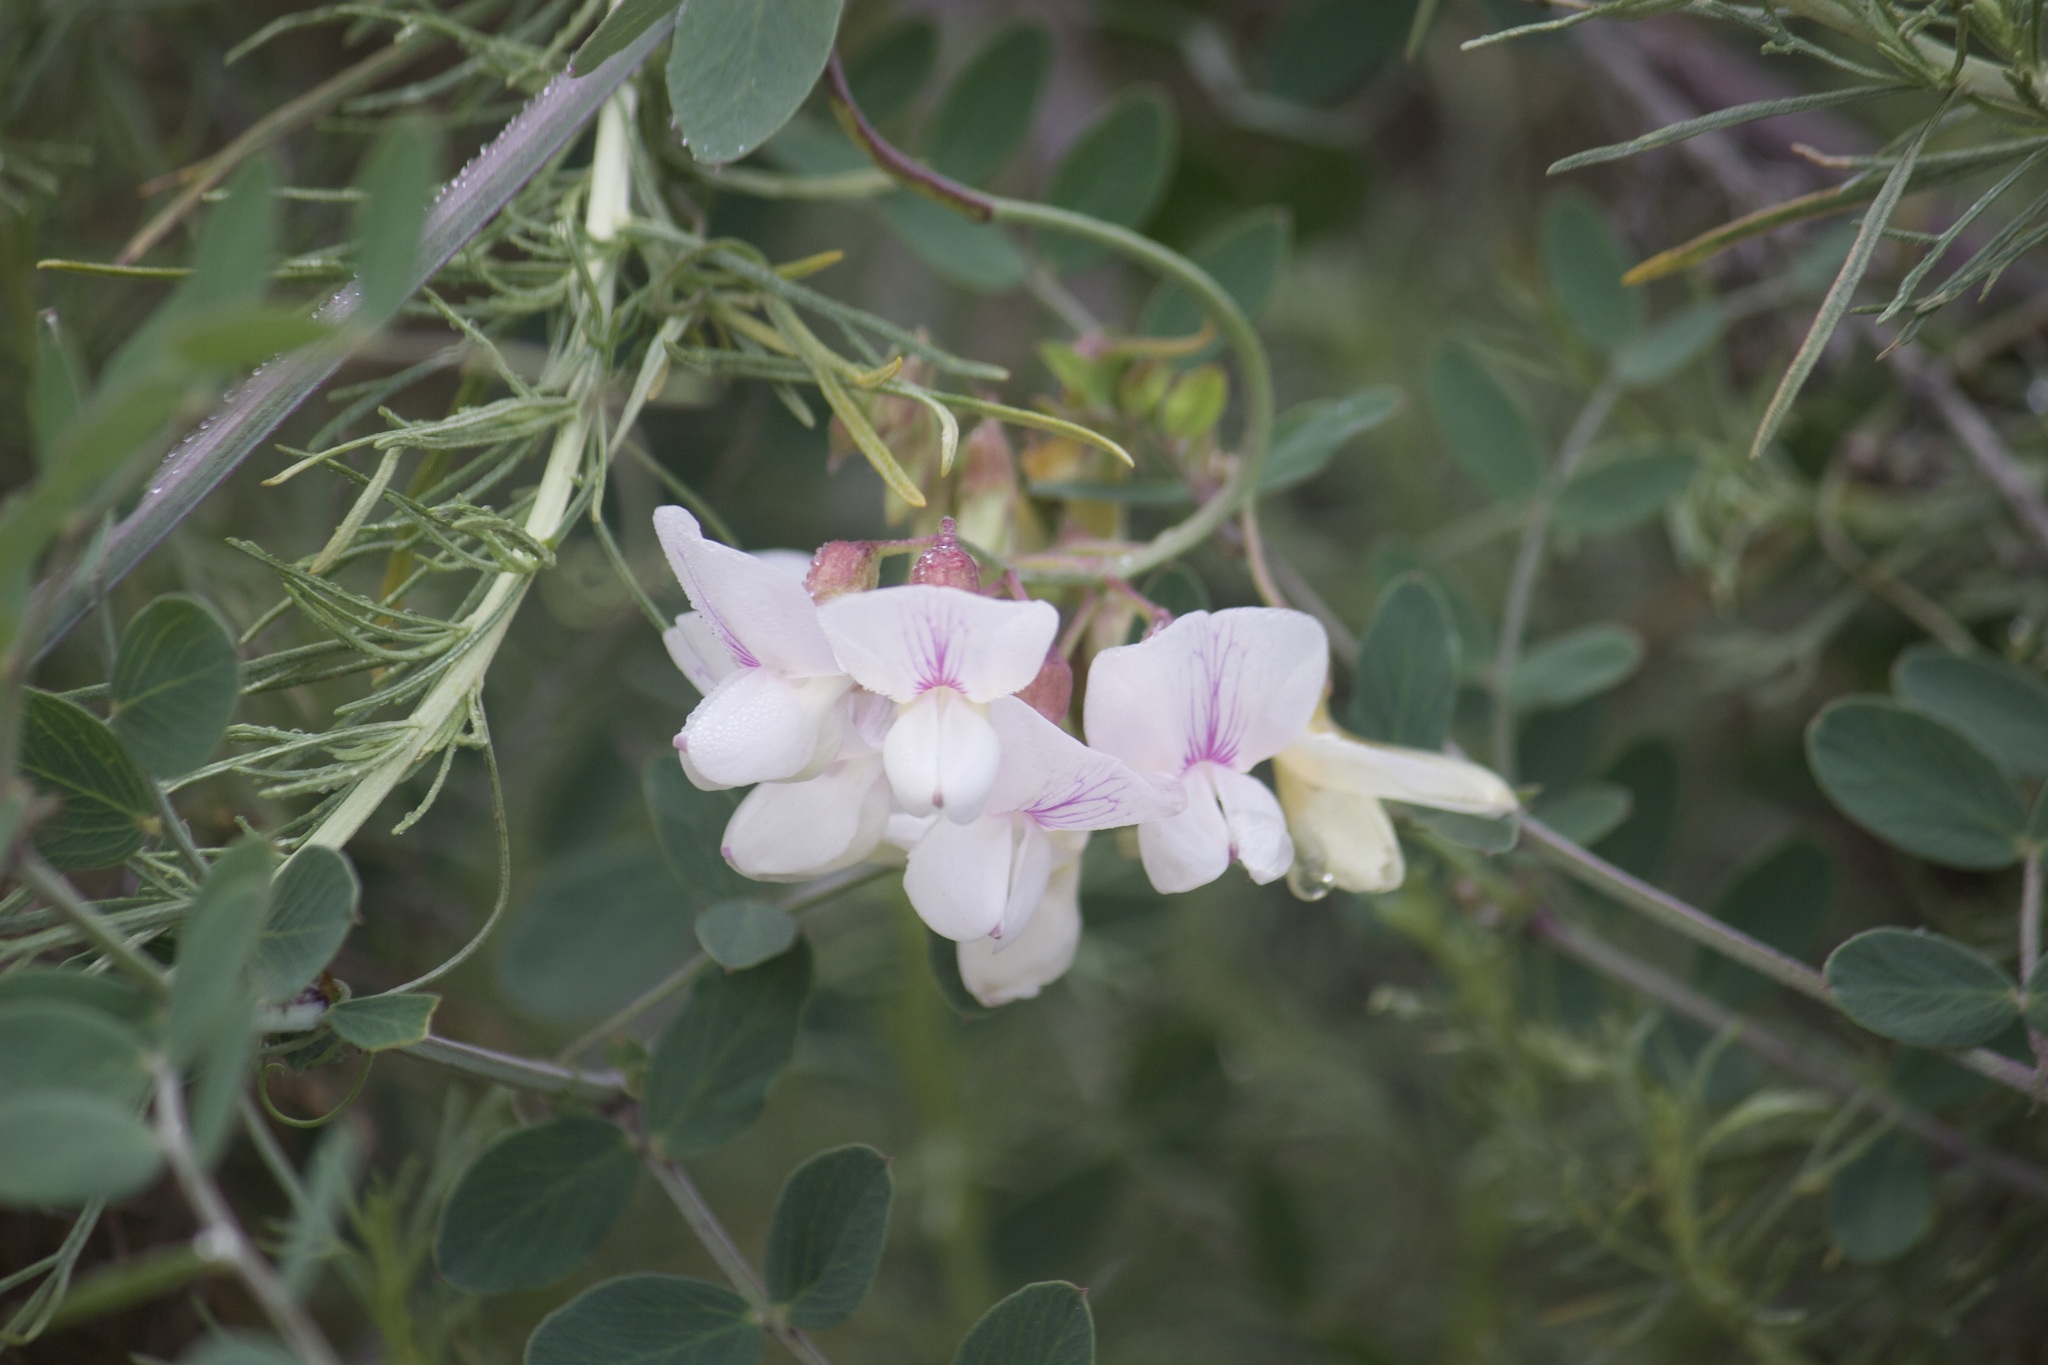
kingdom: Plantae
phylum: Tracheophyta
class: Magnoliopsida
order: Fabales
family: Fabaceae
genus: Lathyrus
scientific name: Lathyrus vestitus
